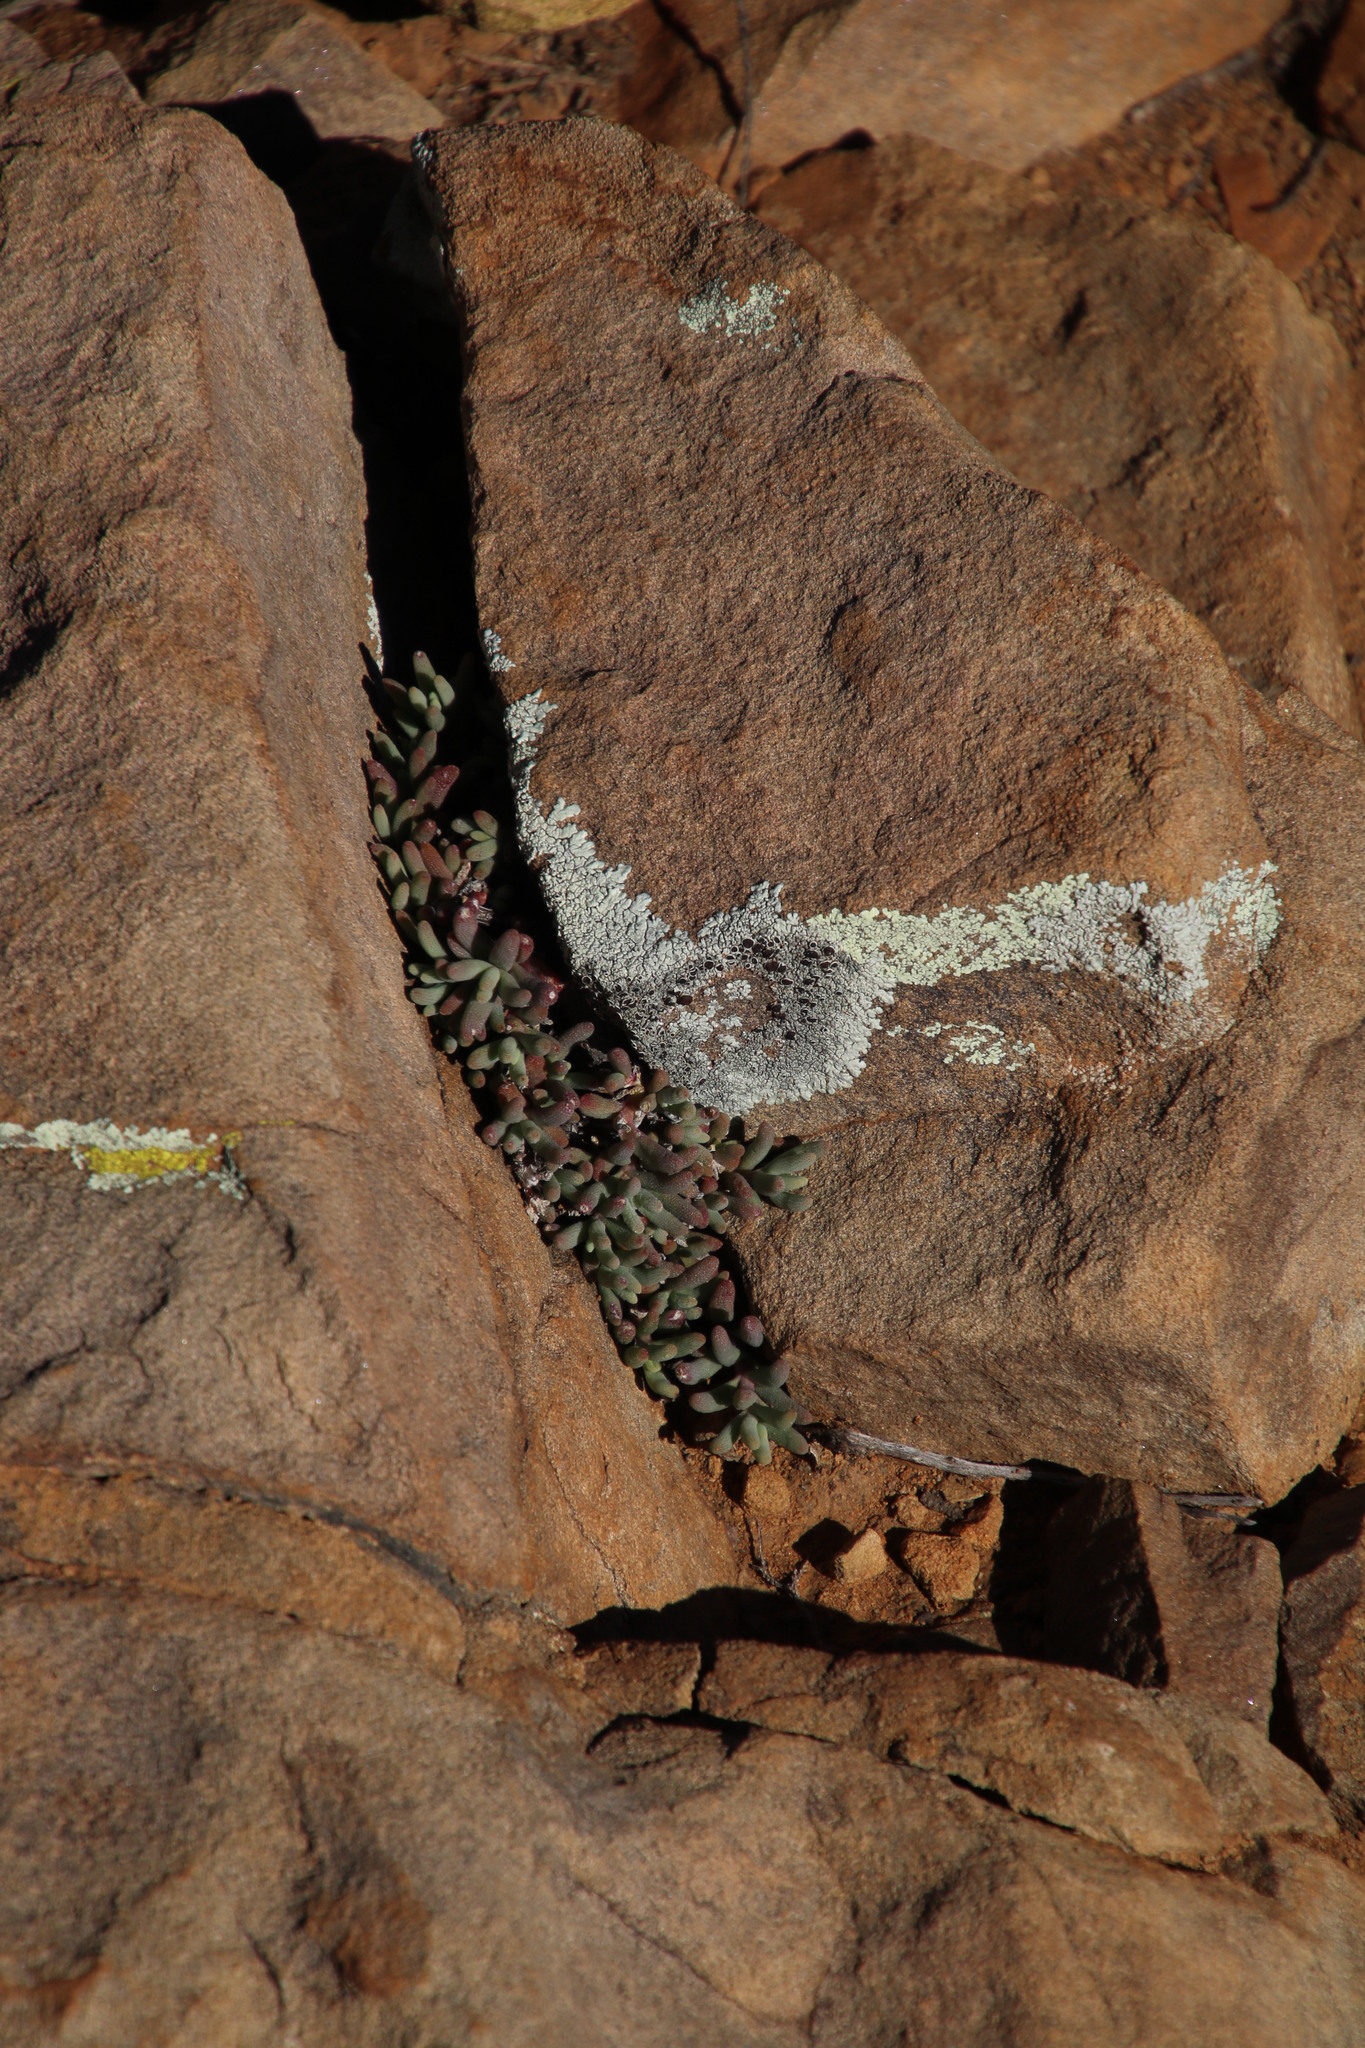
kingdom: Plantae
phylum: Tracheophyta
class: Magnoliopsida
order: Caryophyllales
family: Aizoaceae
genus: Mesembryanthemum
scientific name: Mesembryanthemum grossum
